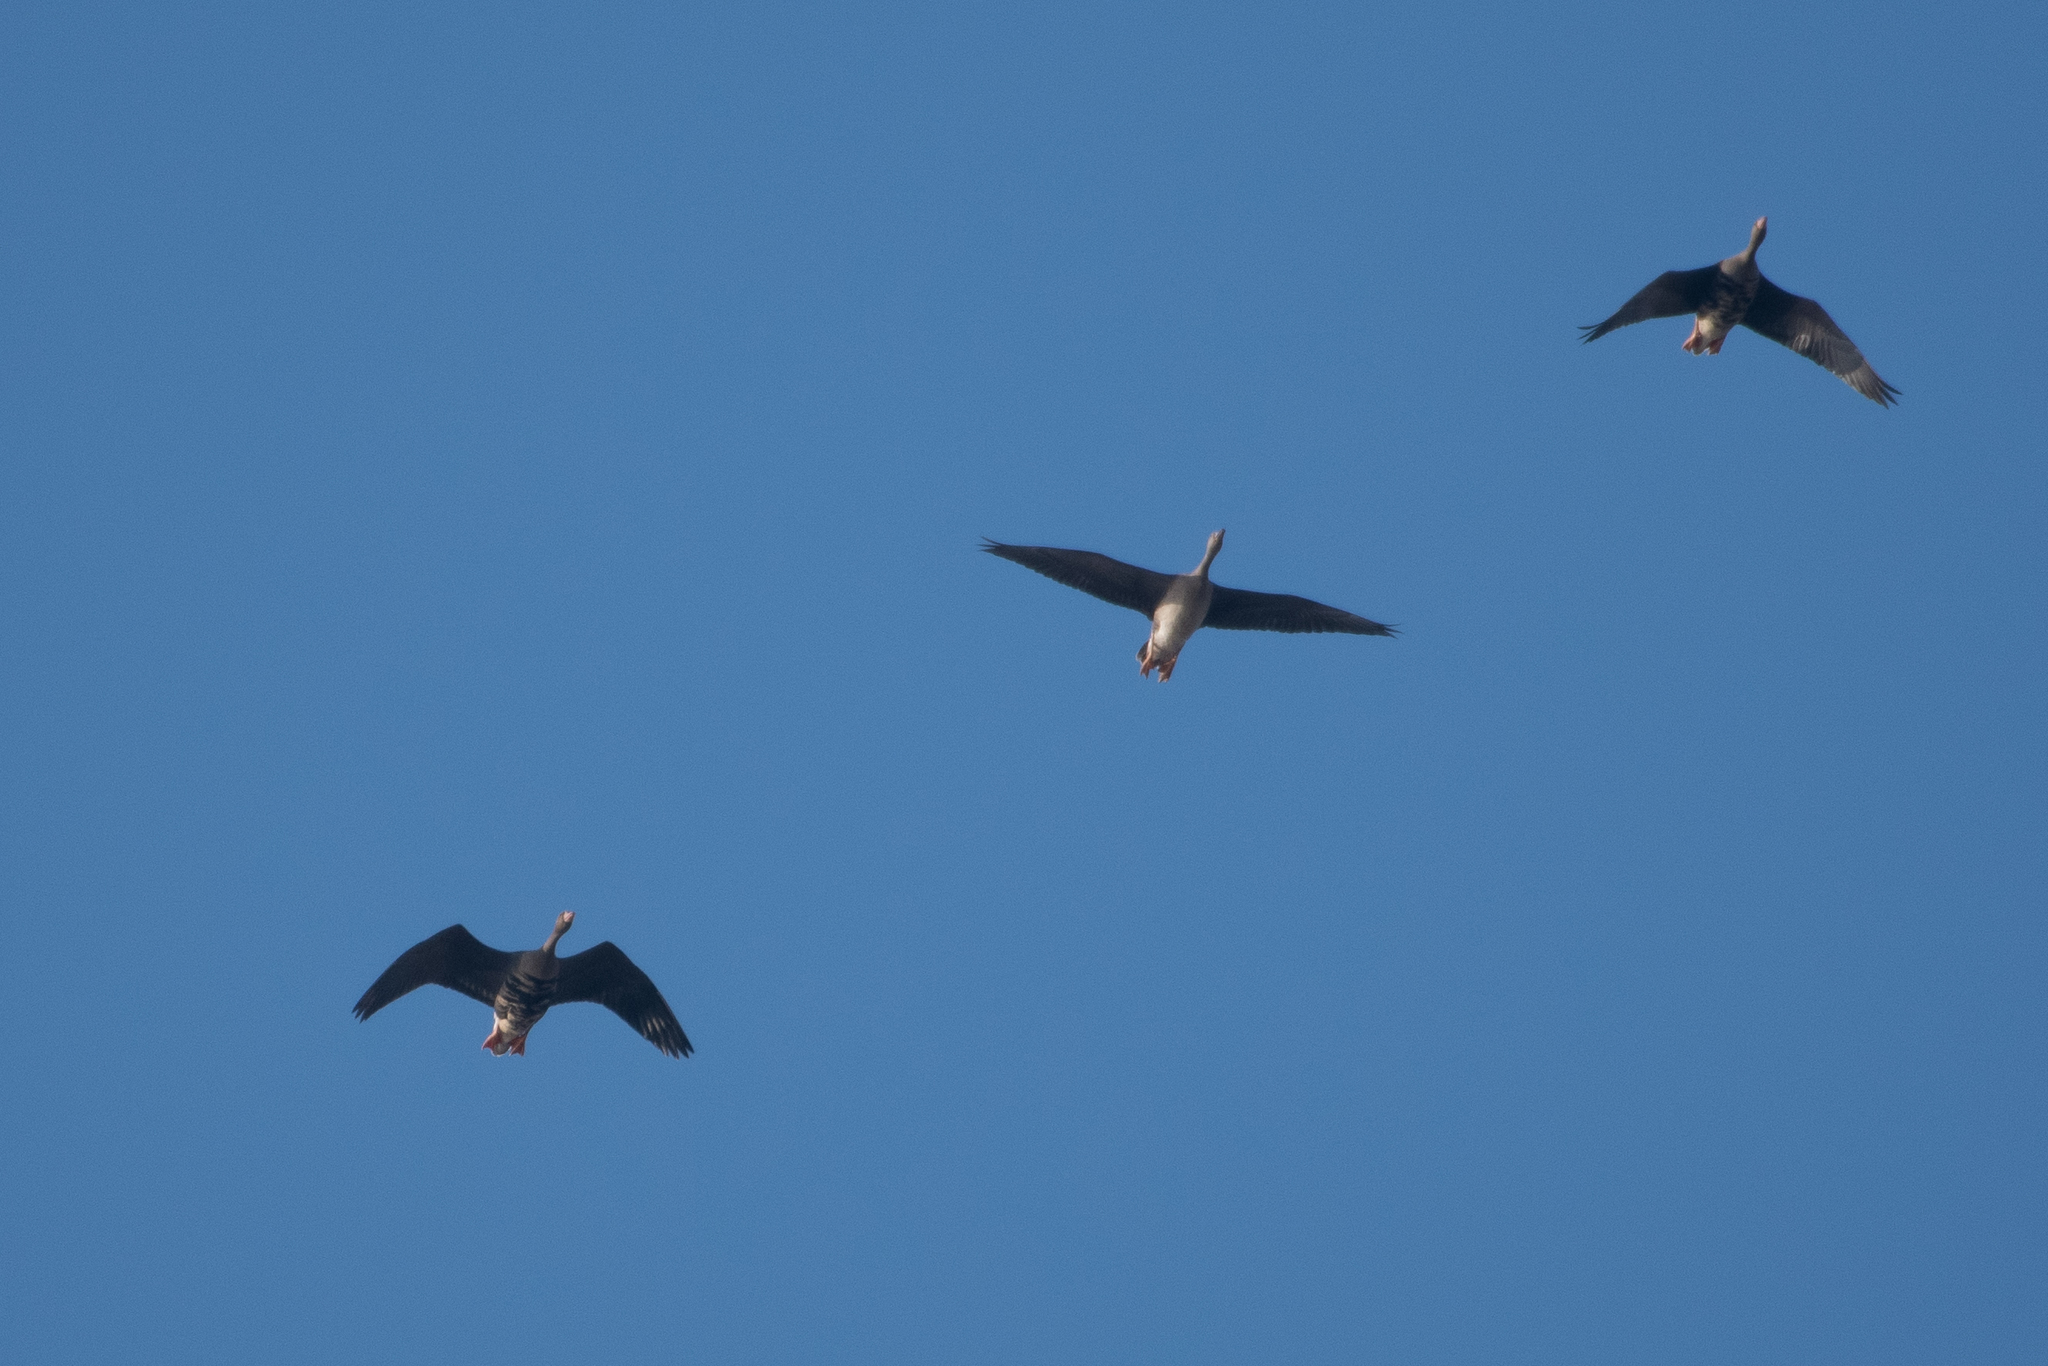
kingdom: Animalia
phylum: Chordata
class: Aves
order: Anseriformes
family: Anatidae
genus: Anser
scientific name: Anser albifrons
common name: Greater white-fronted goose
